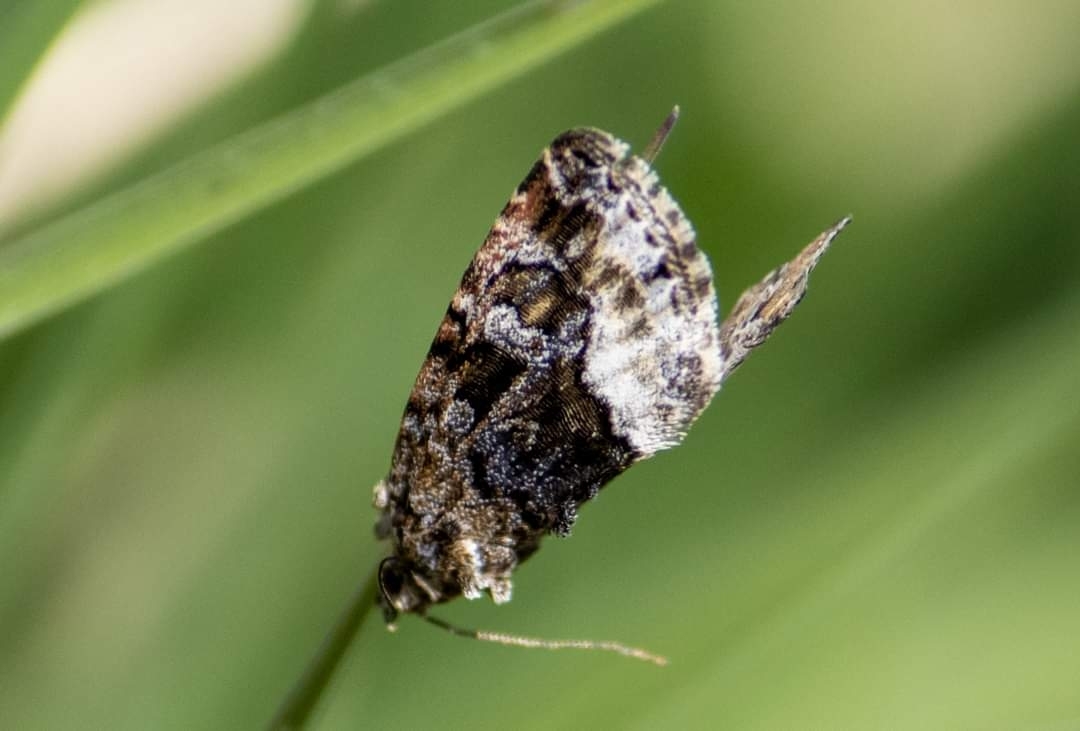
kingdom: Animalia
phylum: Arthropoda
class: Insecta
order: Lepidoptera
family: Noctuidae
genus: Deltote
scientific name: Deltote pygarga
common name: Marbled white spot
